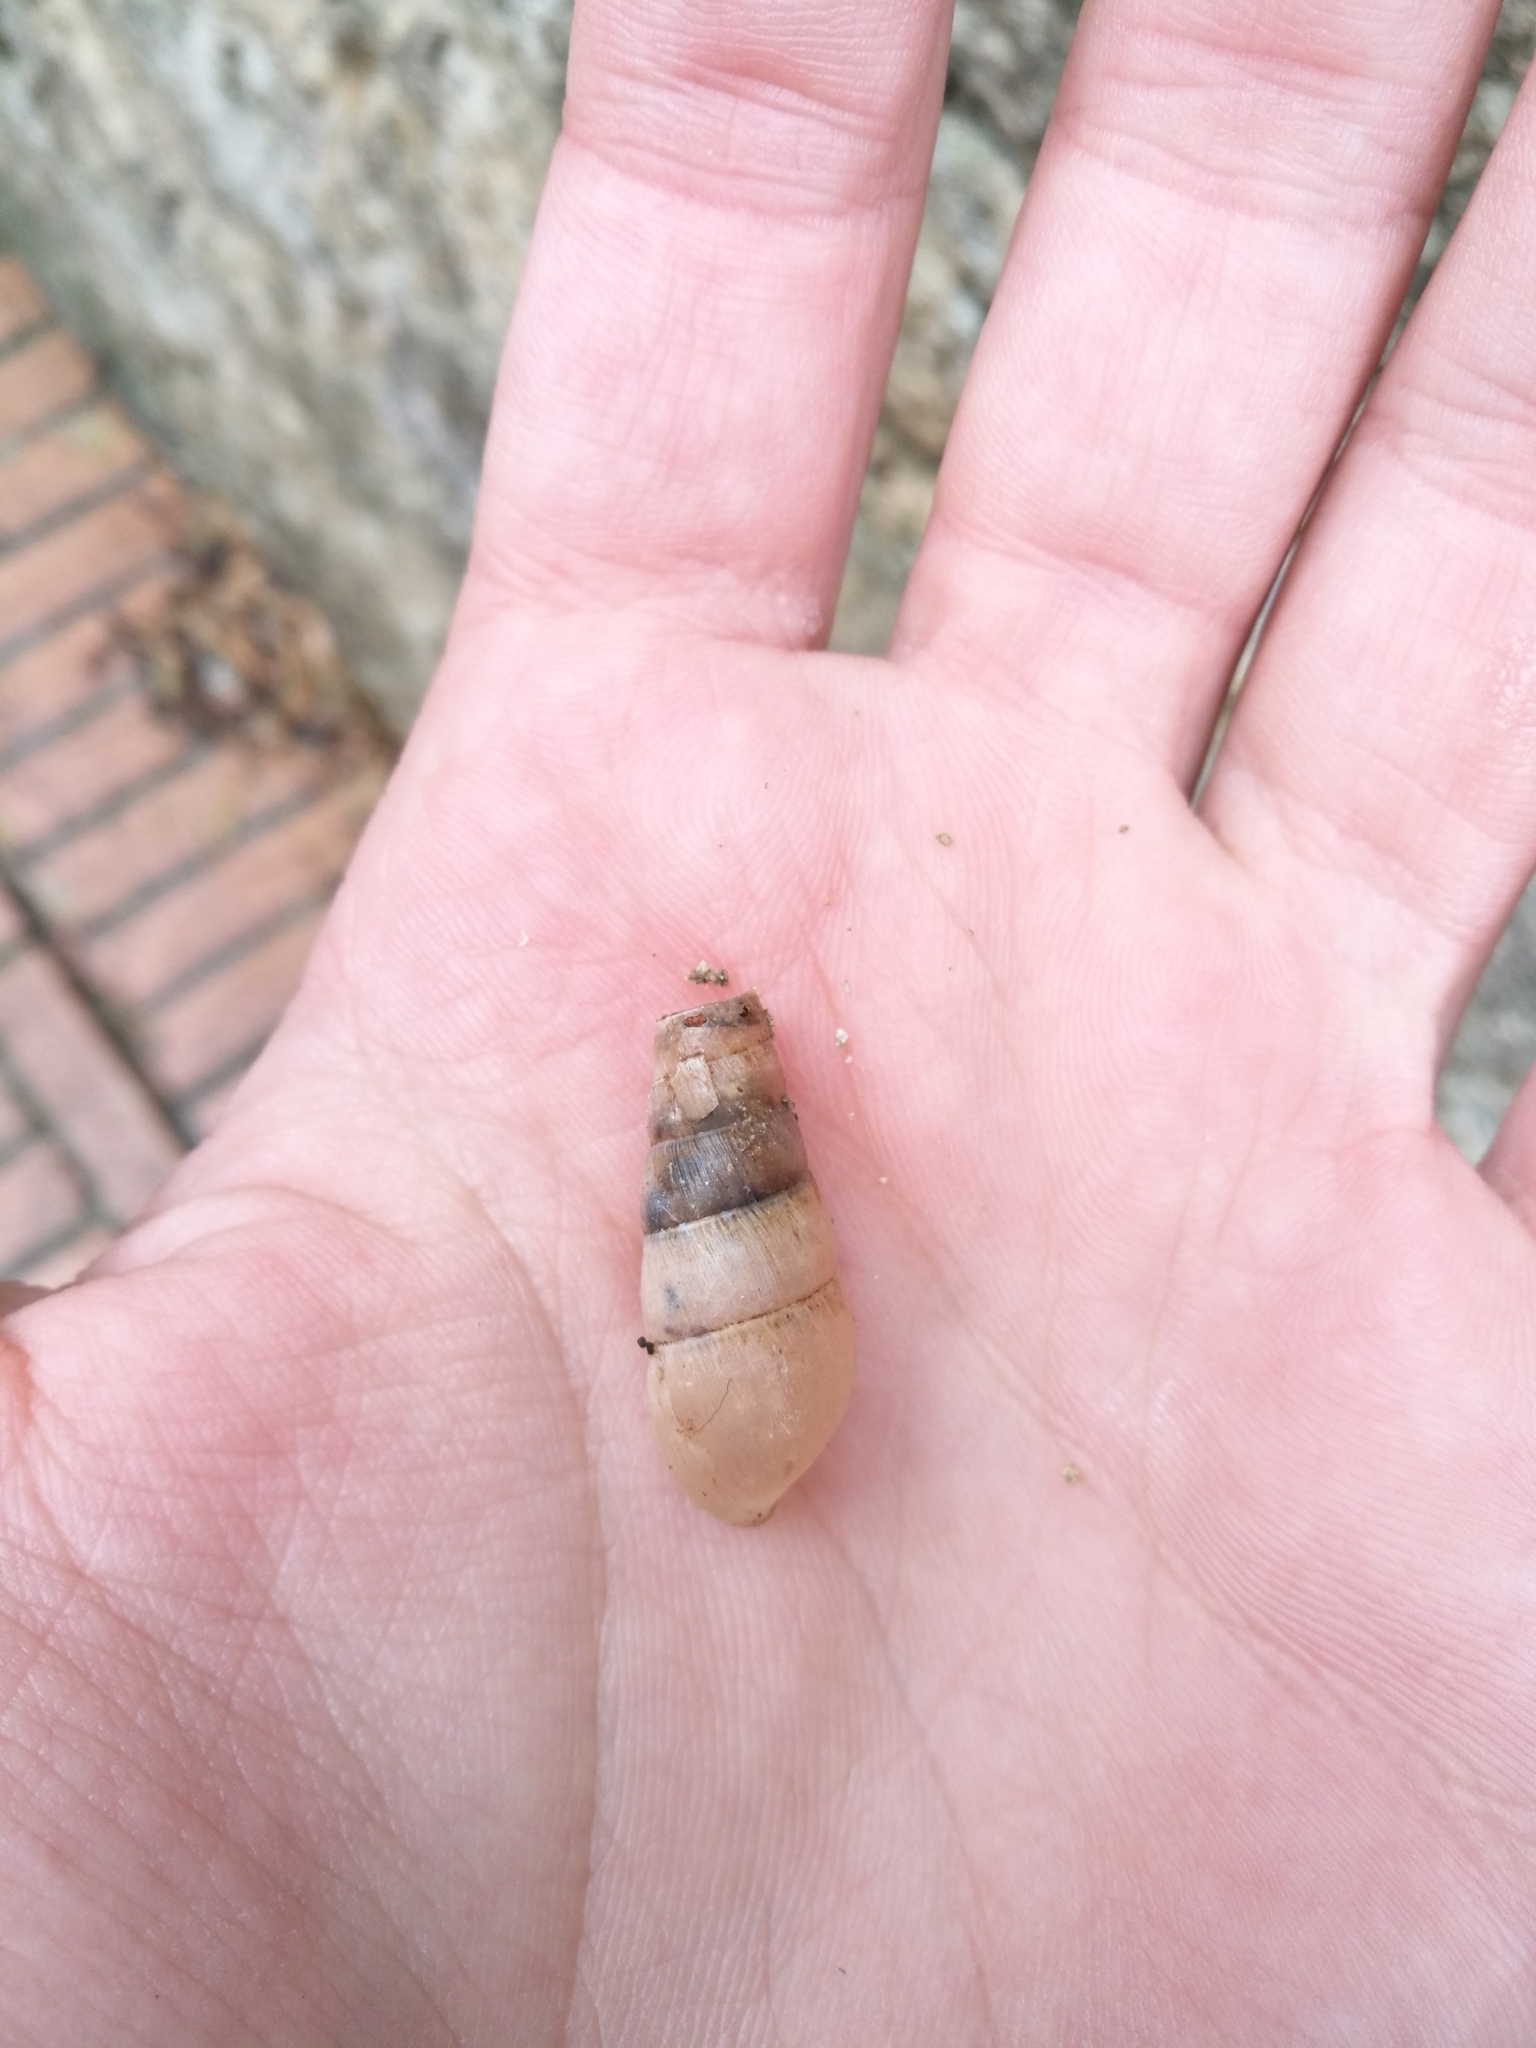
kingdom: Animalia
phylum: Mollusca
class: Gastropoda
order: Stylommatophora
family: Achatinidae
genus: Rumina
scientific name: Rumina decollata
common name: Decollate snail
